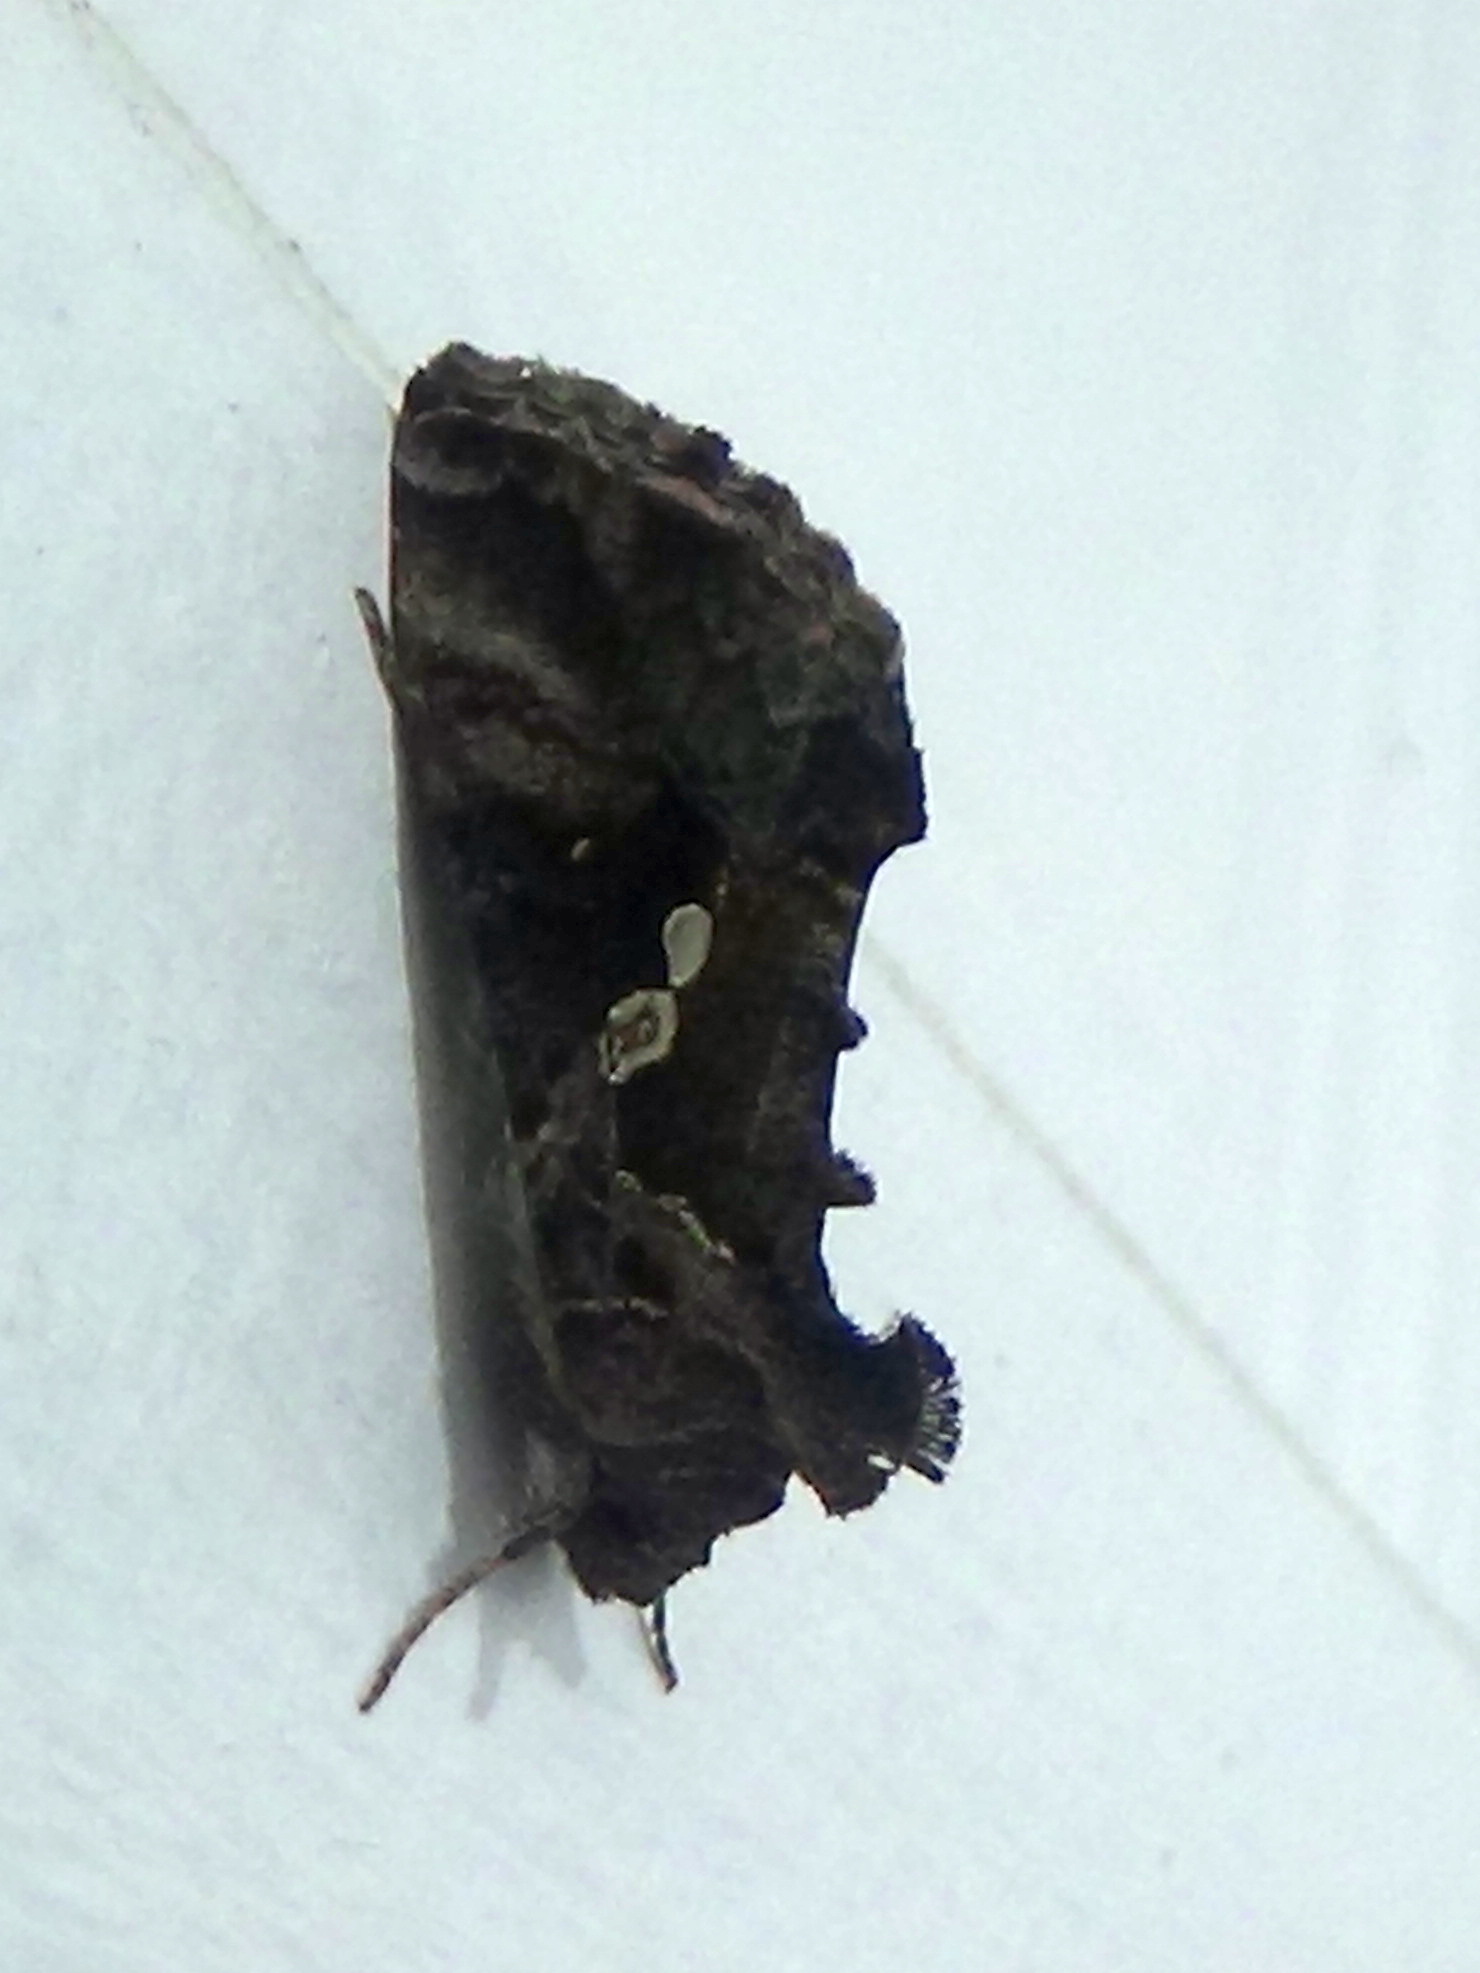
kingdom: Animalia
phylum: Arthropoda
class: Insecta
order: Lepidoptera
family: Noctuidae
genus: Chrysodeixis
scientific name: Chrysodeixis includens
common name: Cutworm moth
